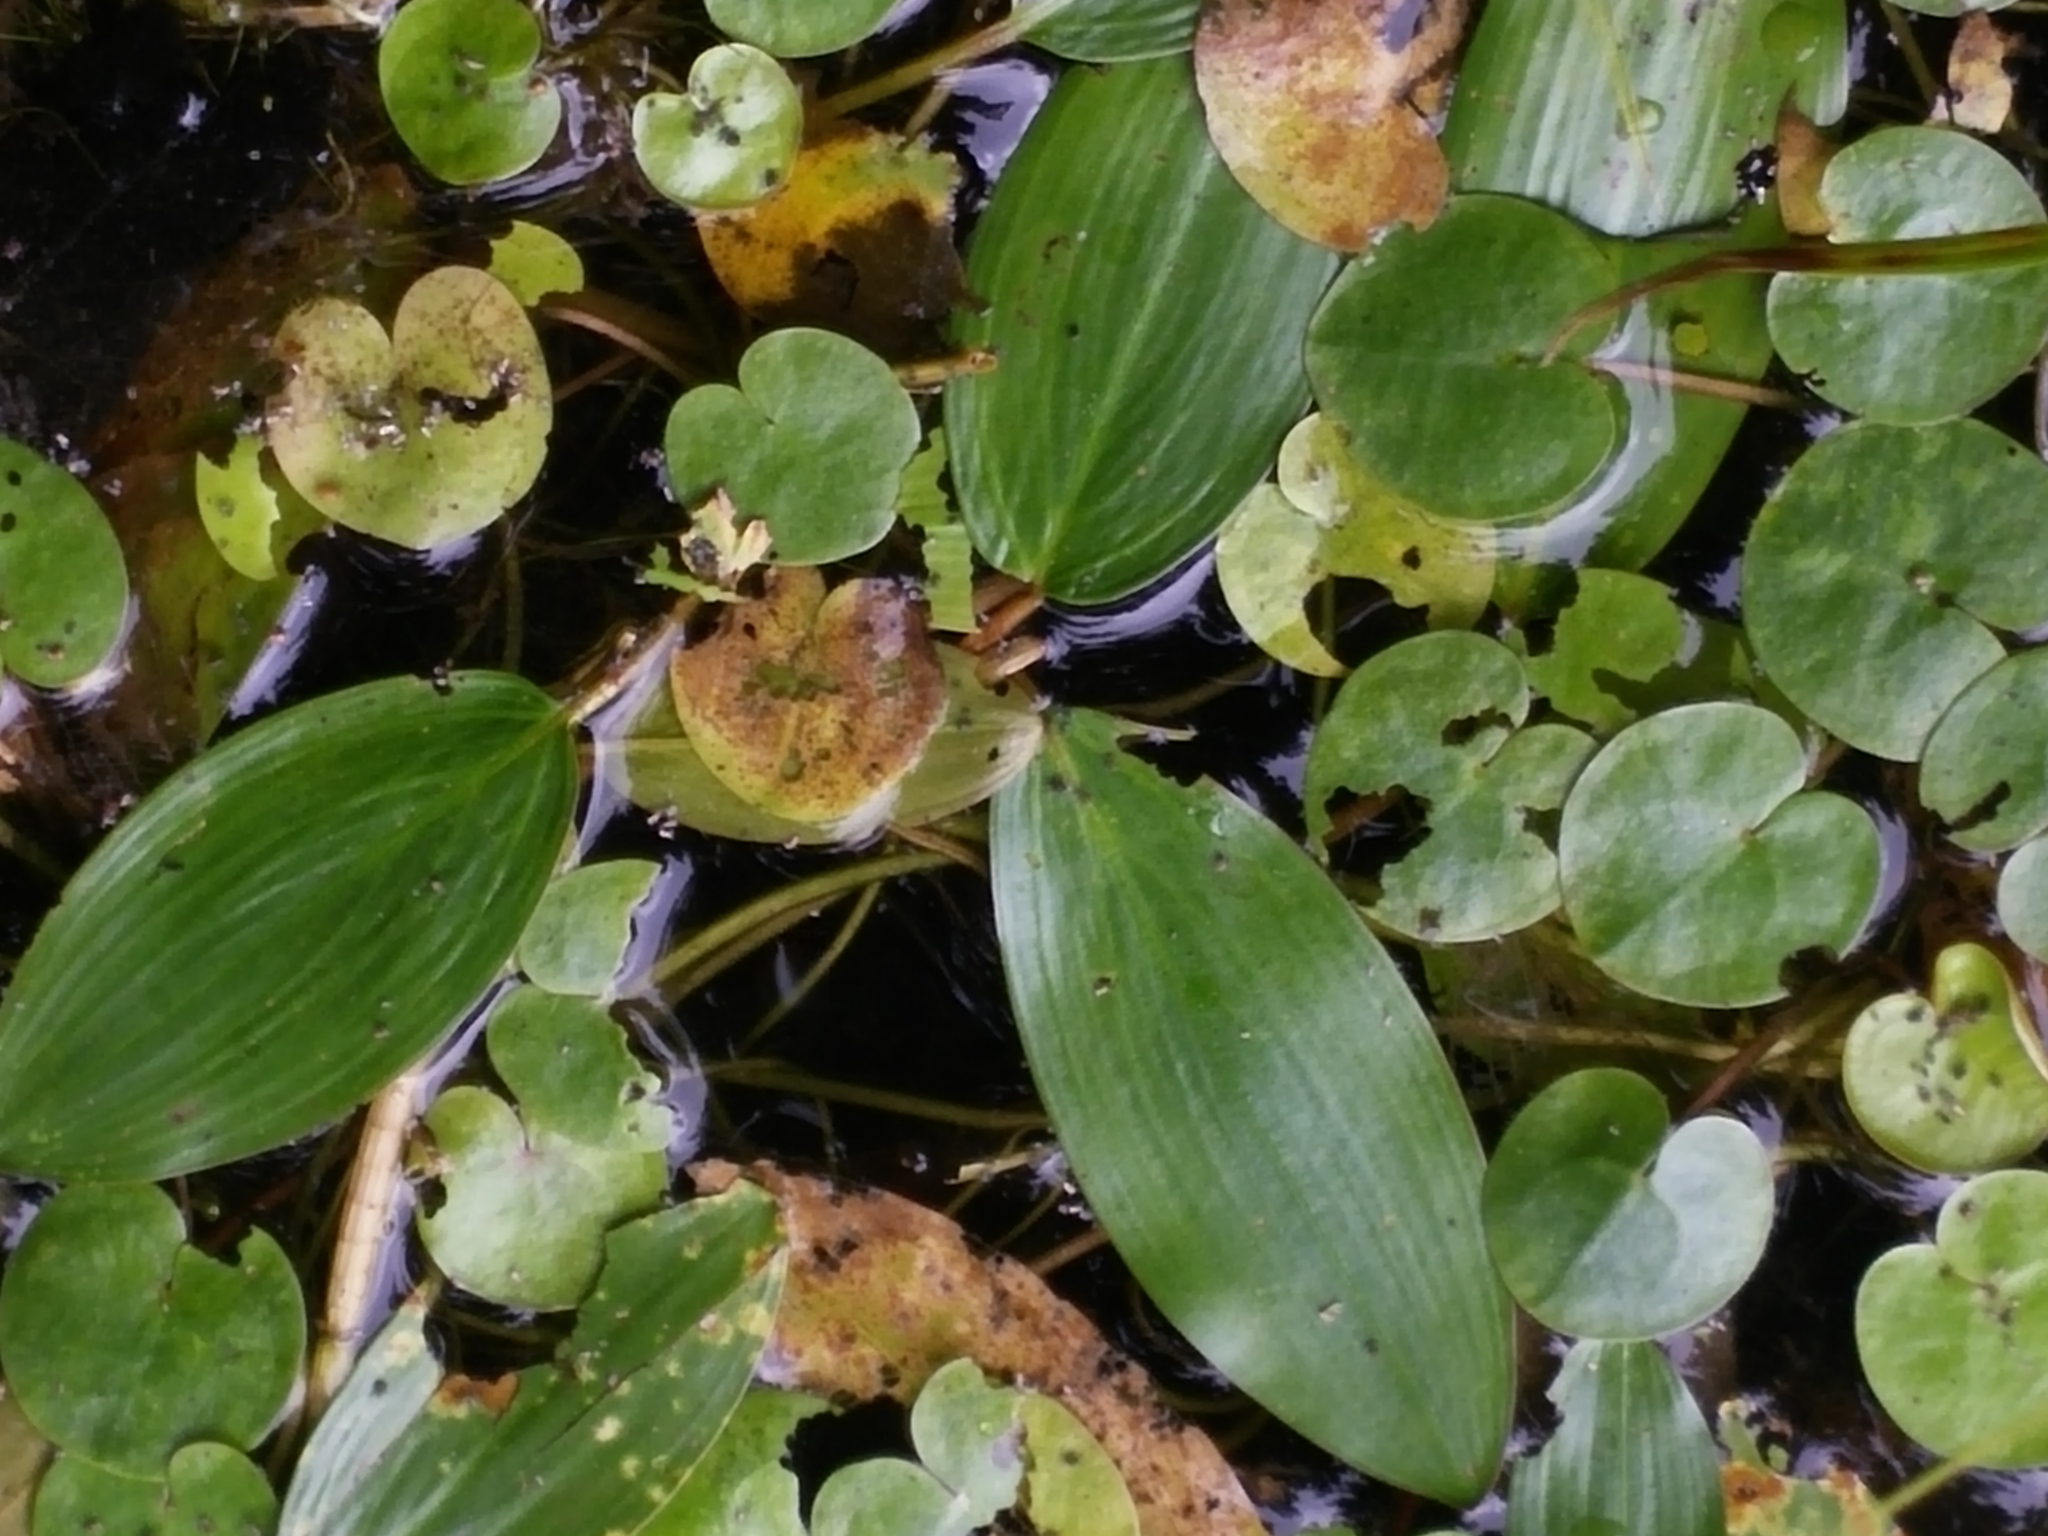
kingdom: Plantae
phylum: Tracheophyta
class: Liliopsida
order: Alismatales
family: Potamogetonaceae
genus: Potamogeton
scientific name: Potamogeton natans
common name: Broad-leaved pondweed
